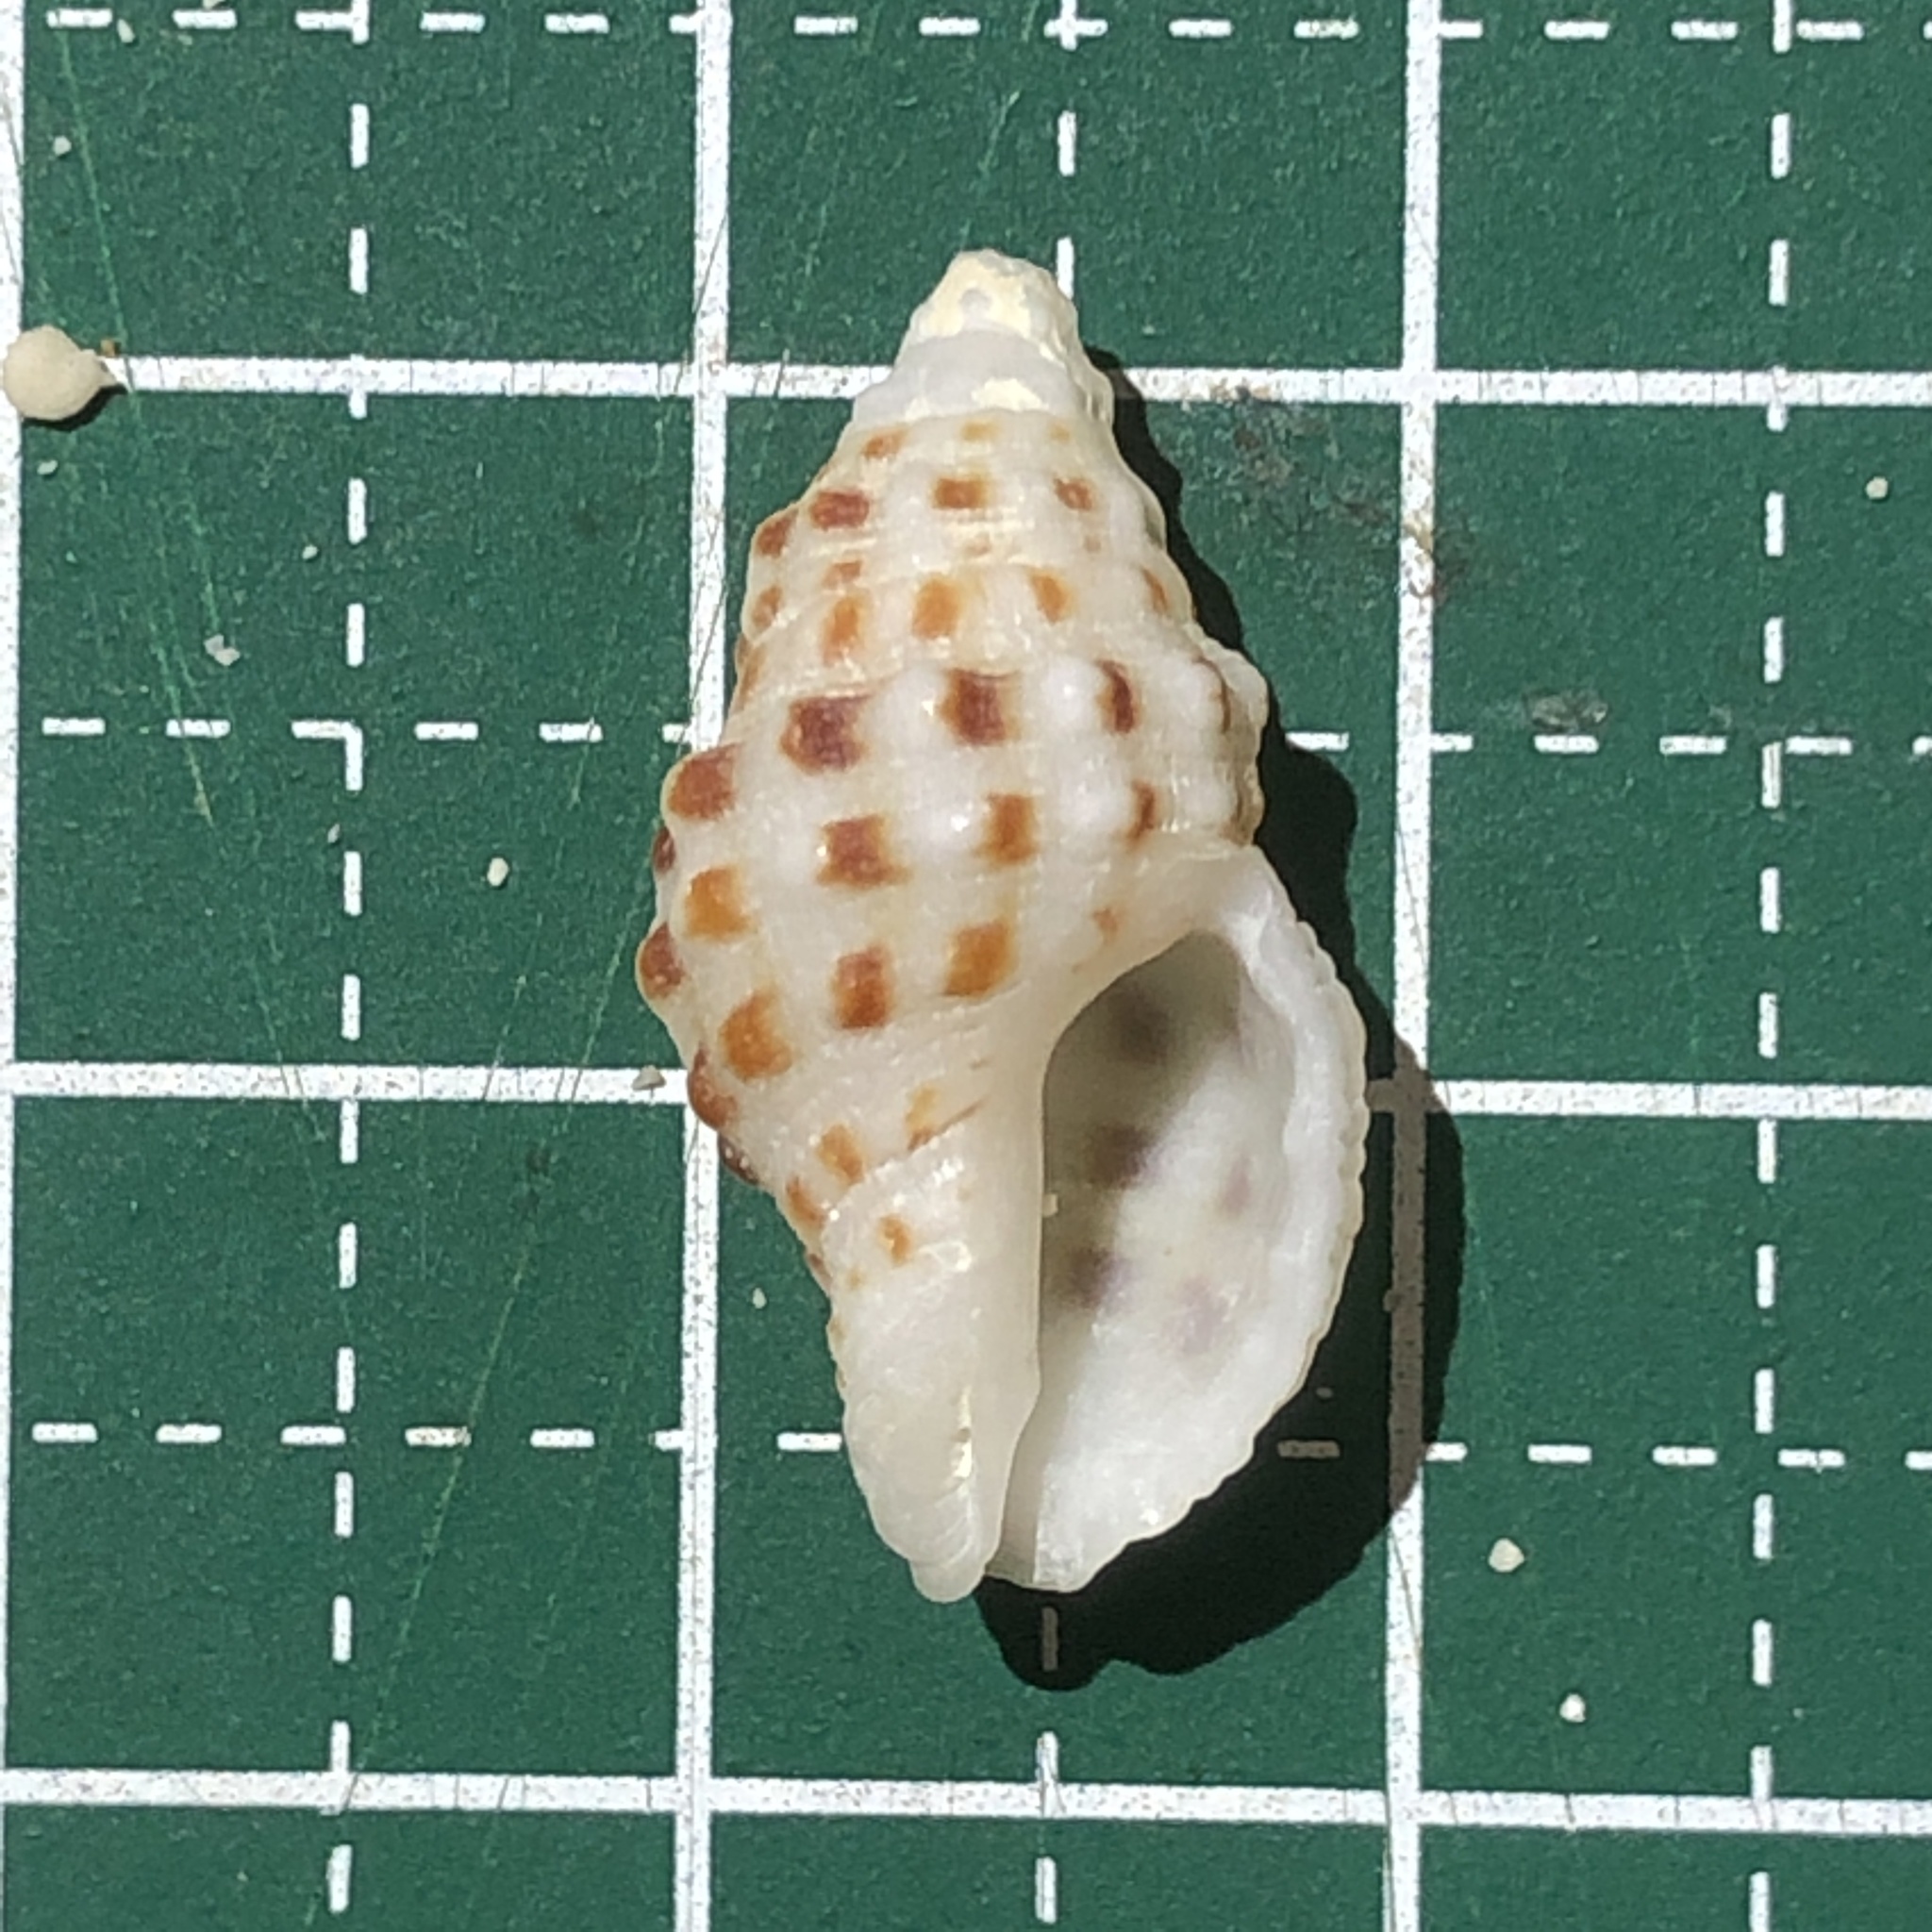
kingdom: Animalia
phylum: Mollusca
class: Gastropoda
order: Neogastropoda
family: Muricidae
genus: Drupella
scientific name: Drupella minuta
